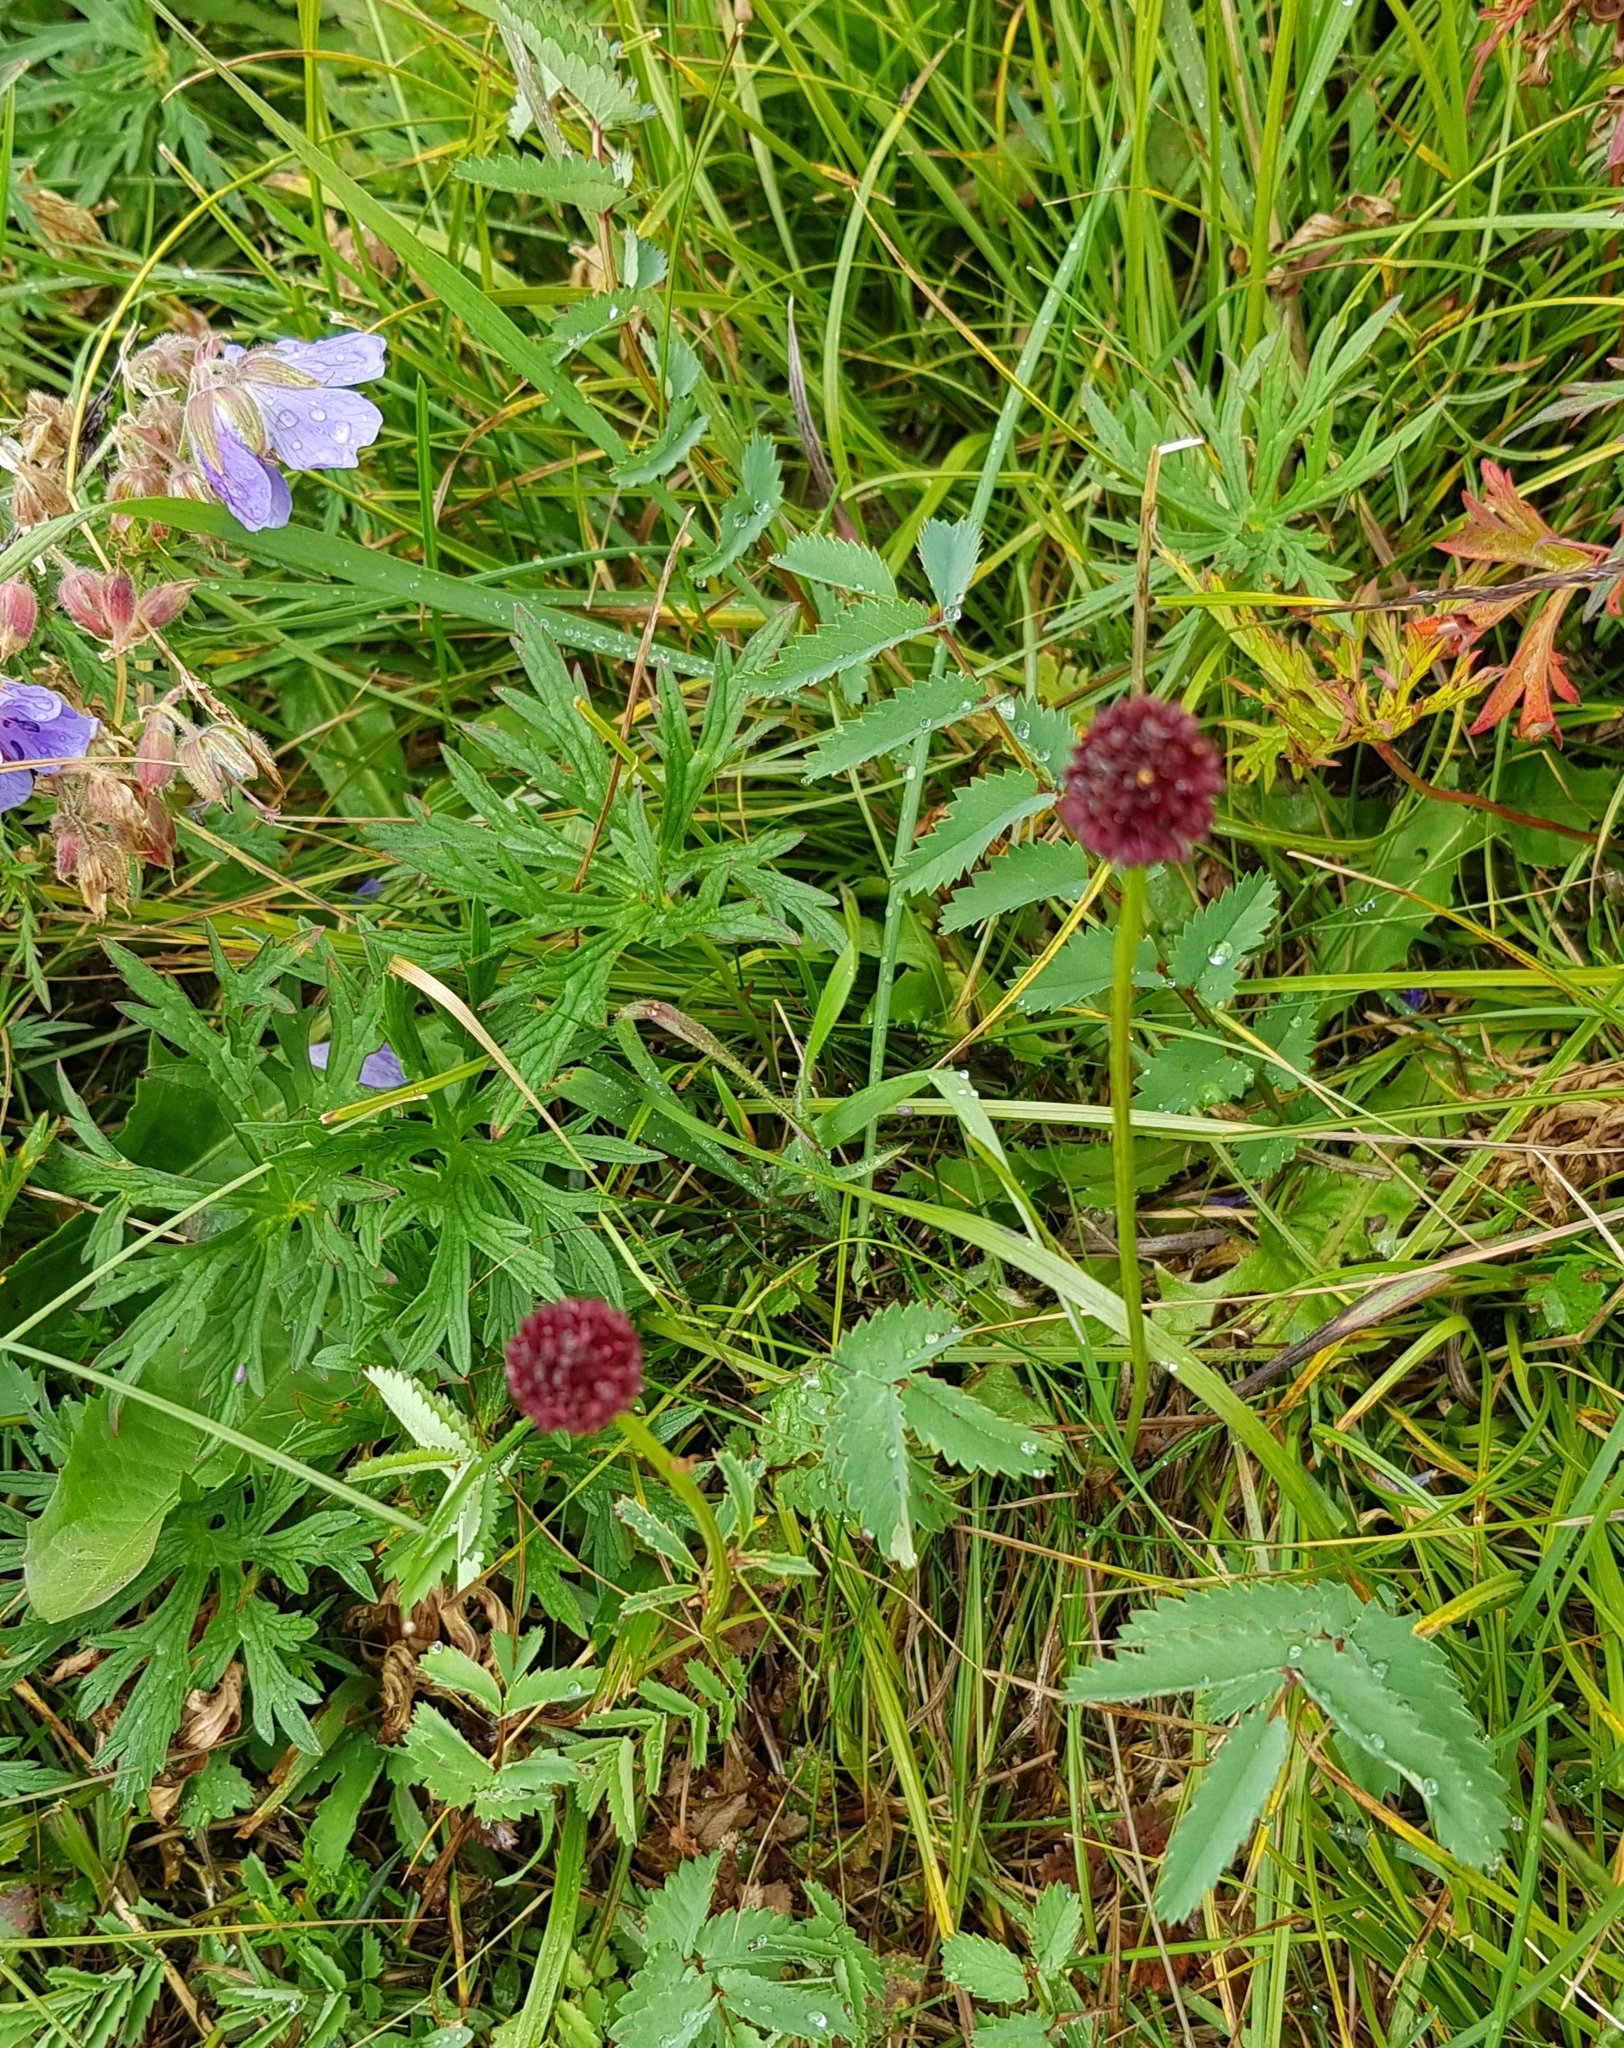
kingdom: Plantae
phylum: Tracheophyta
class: Magnoliopsida
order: Rosales
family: Rosaceae
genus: Sanguisorba
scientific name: Sanguisorba officinalis
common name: Great burnet
